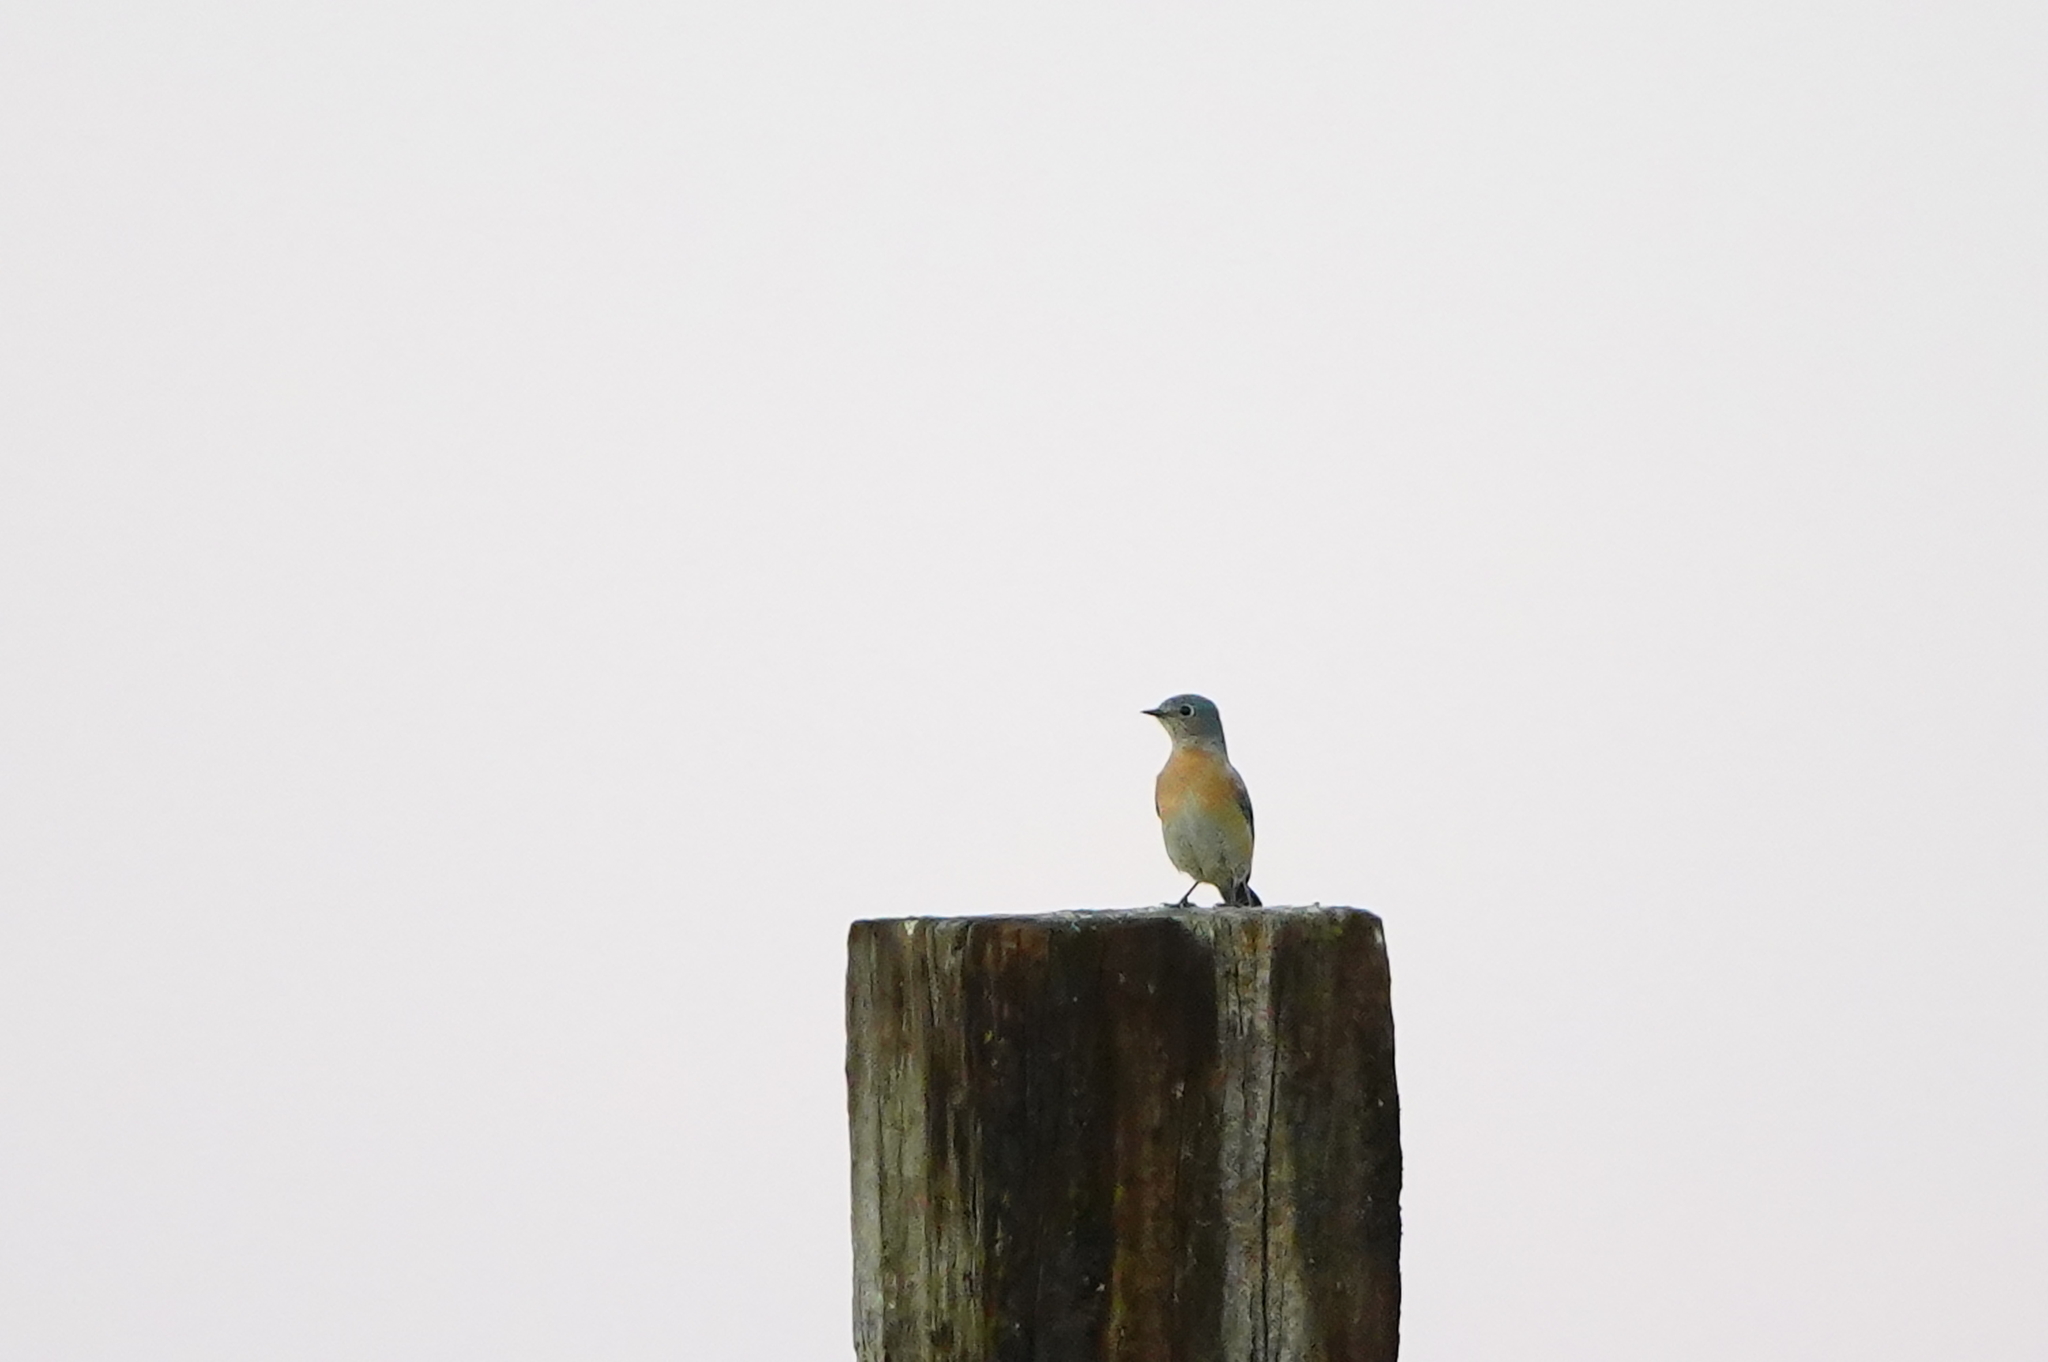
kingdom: Animalia
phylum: Chordata
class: Aves
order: Passeriformes
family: Turdidae
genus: Sialia
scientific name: Sialia mexicana
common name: Western bluebird
